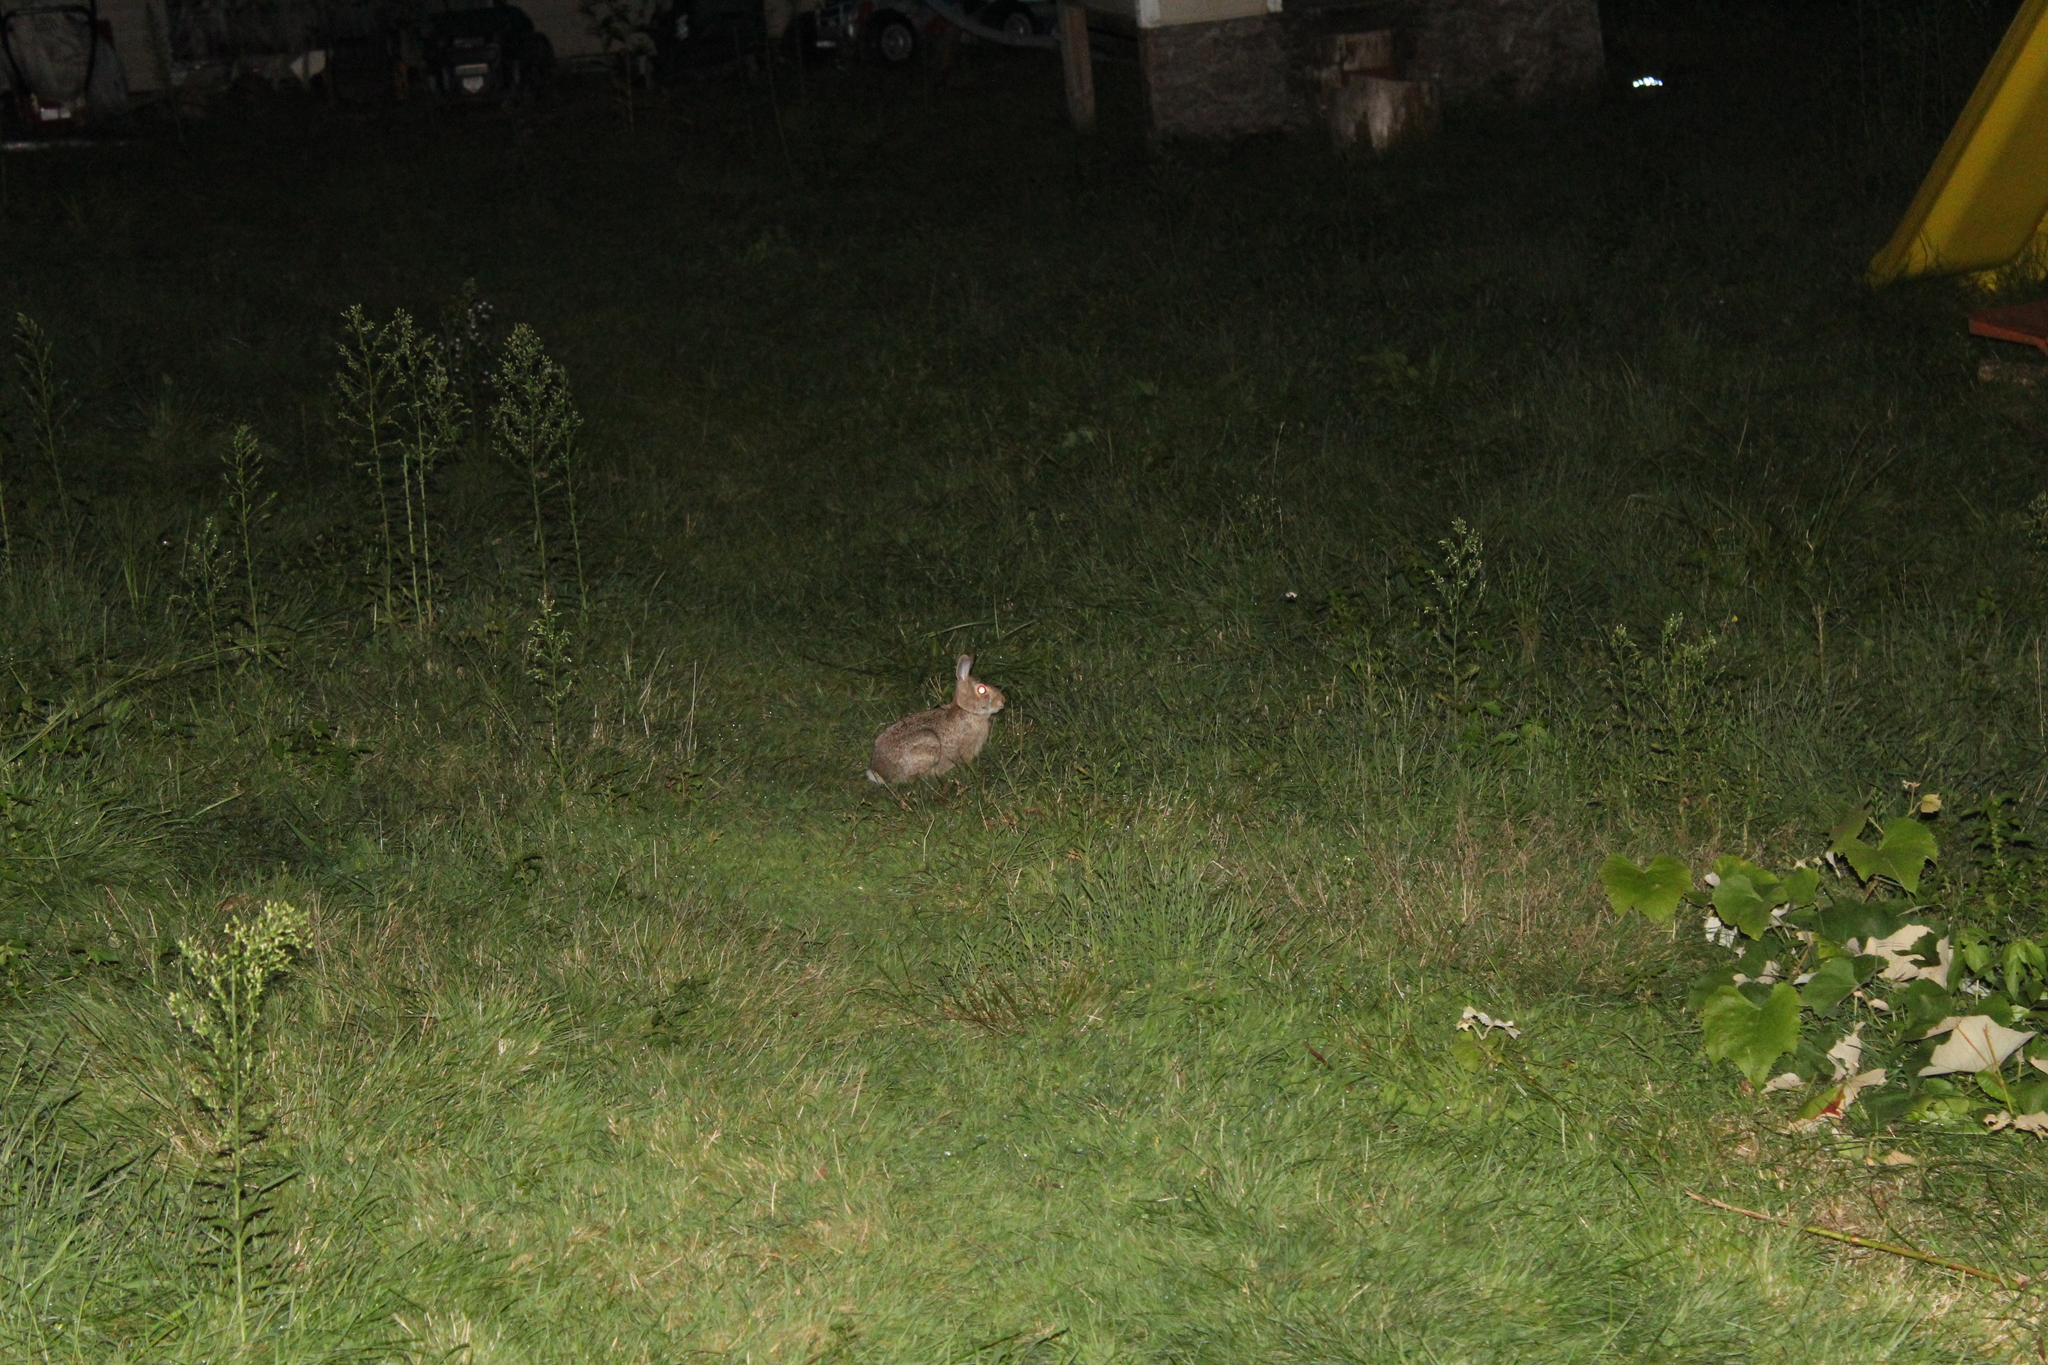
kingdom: Animalia
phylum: Chordata
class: Mammalia
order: Lagomorpha
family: Leporidae
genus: Sylvilagus
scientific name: Sylvilagus floridanus
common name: Eastern cottontail
